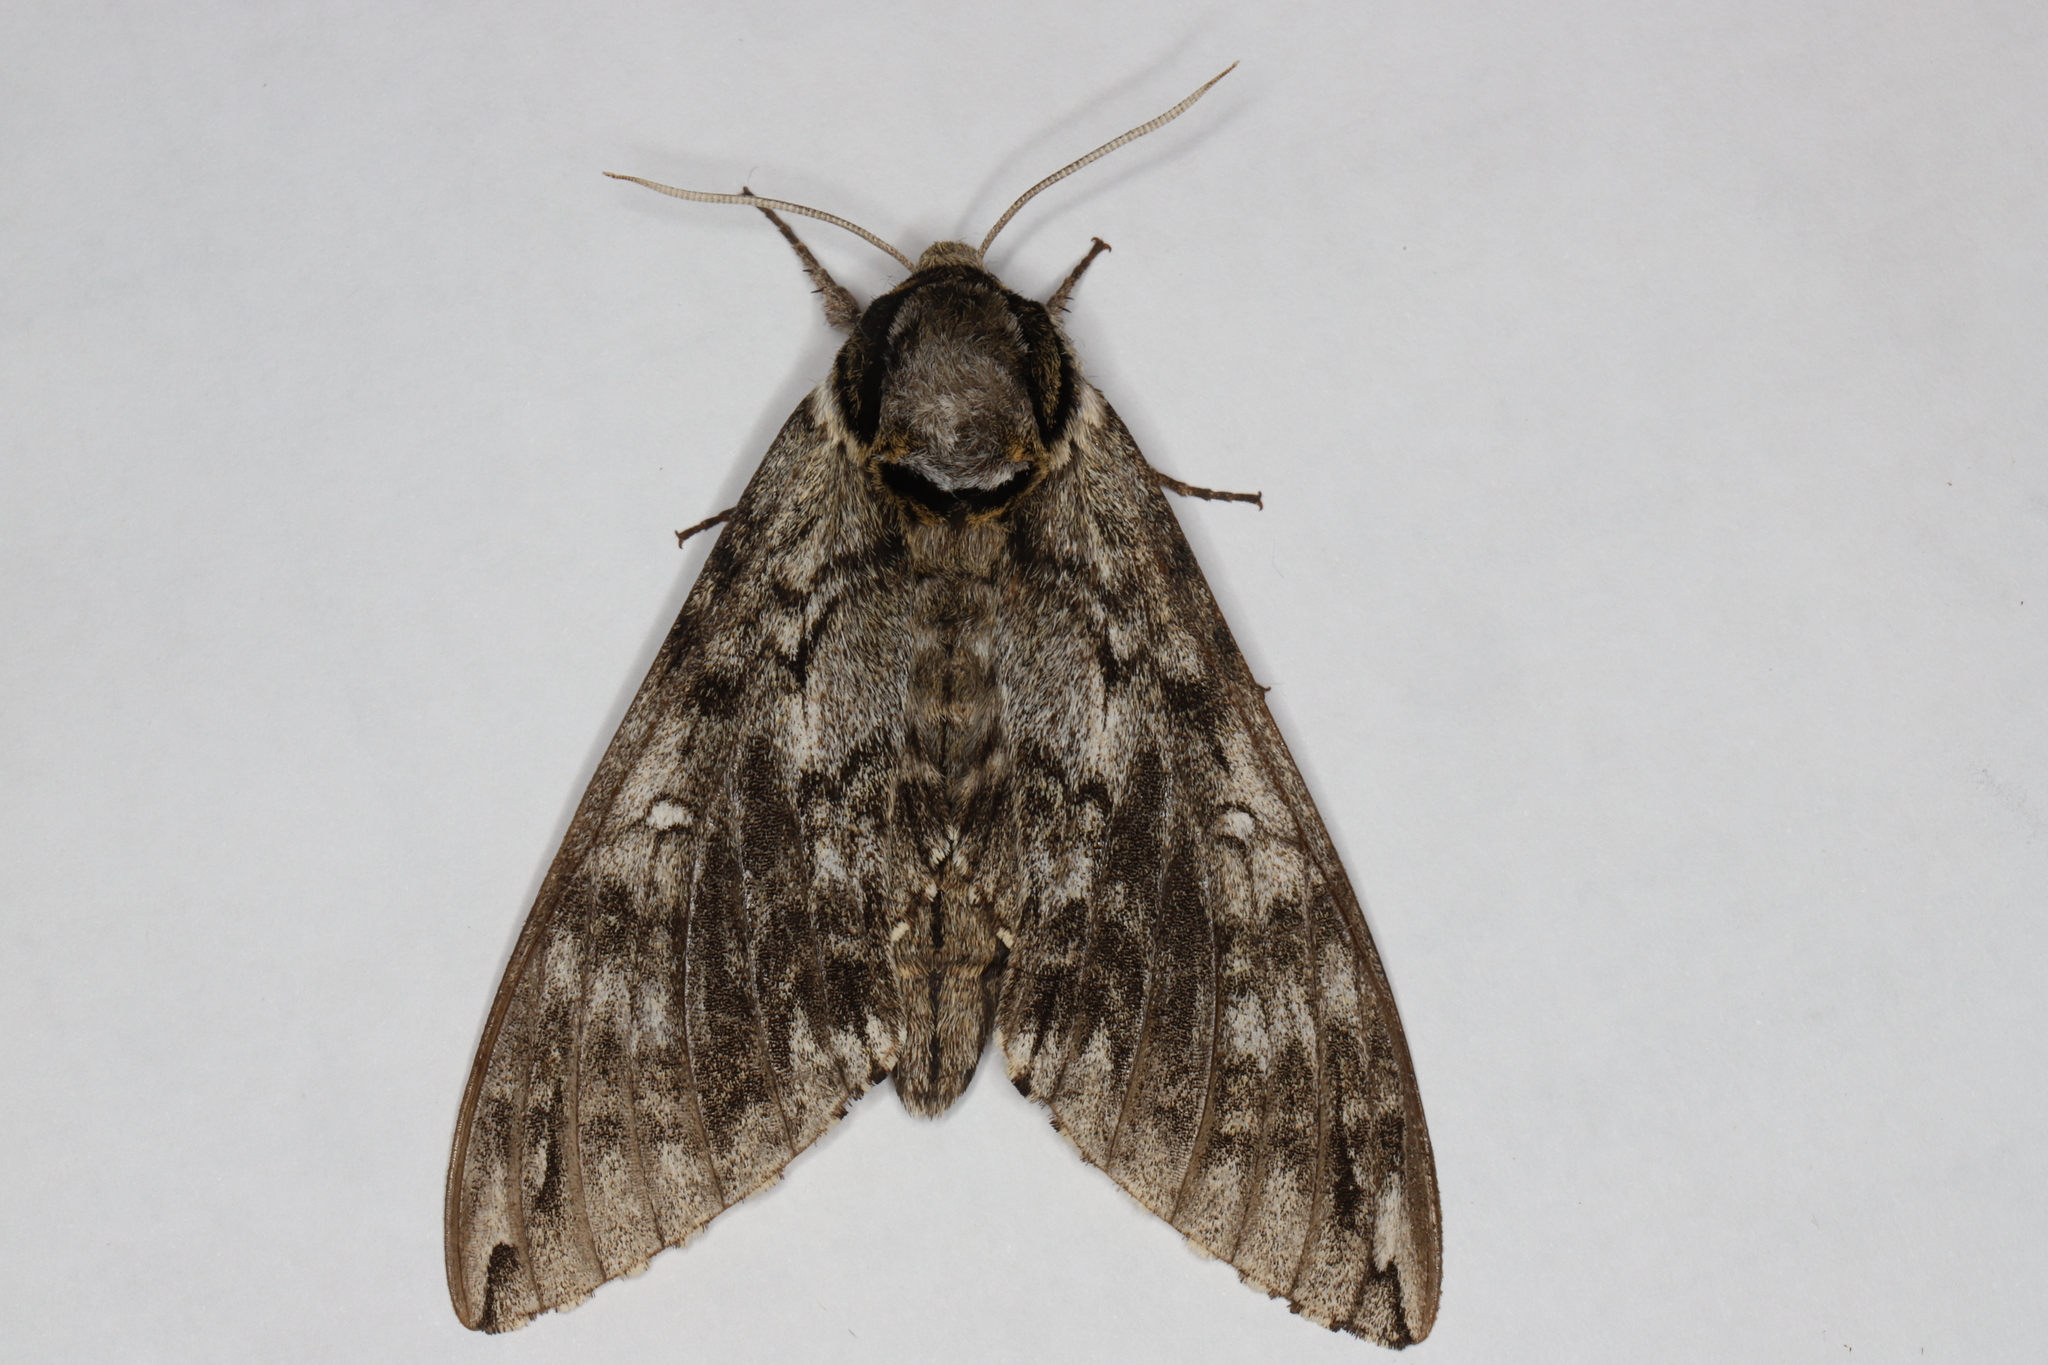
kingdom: Animalia
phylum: Arthropoda
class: Insecta
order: Lepidoptera
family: Sphingidae
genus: Ceratomia
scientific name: Ceratomia undulosa
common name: Waved sphinx
